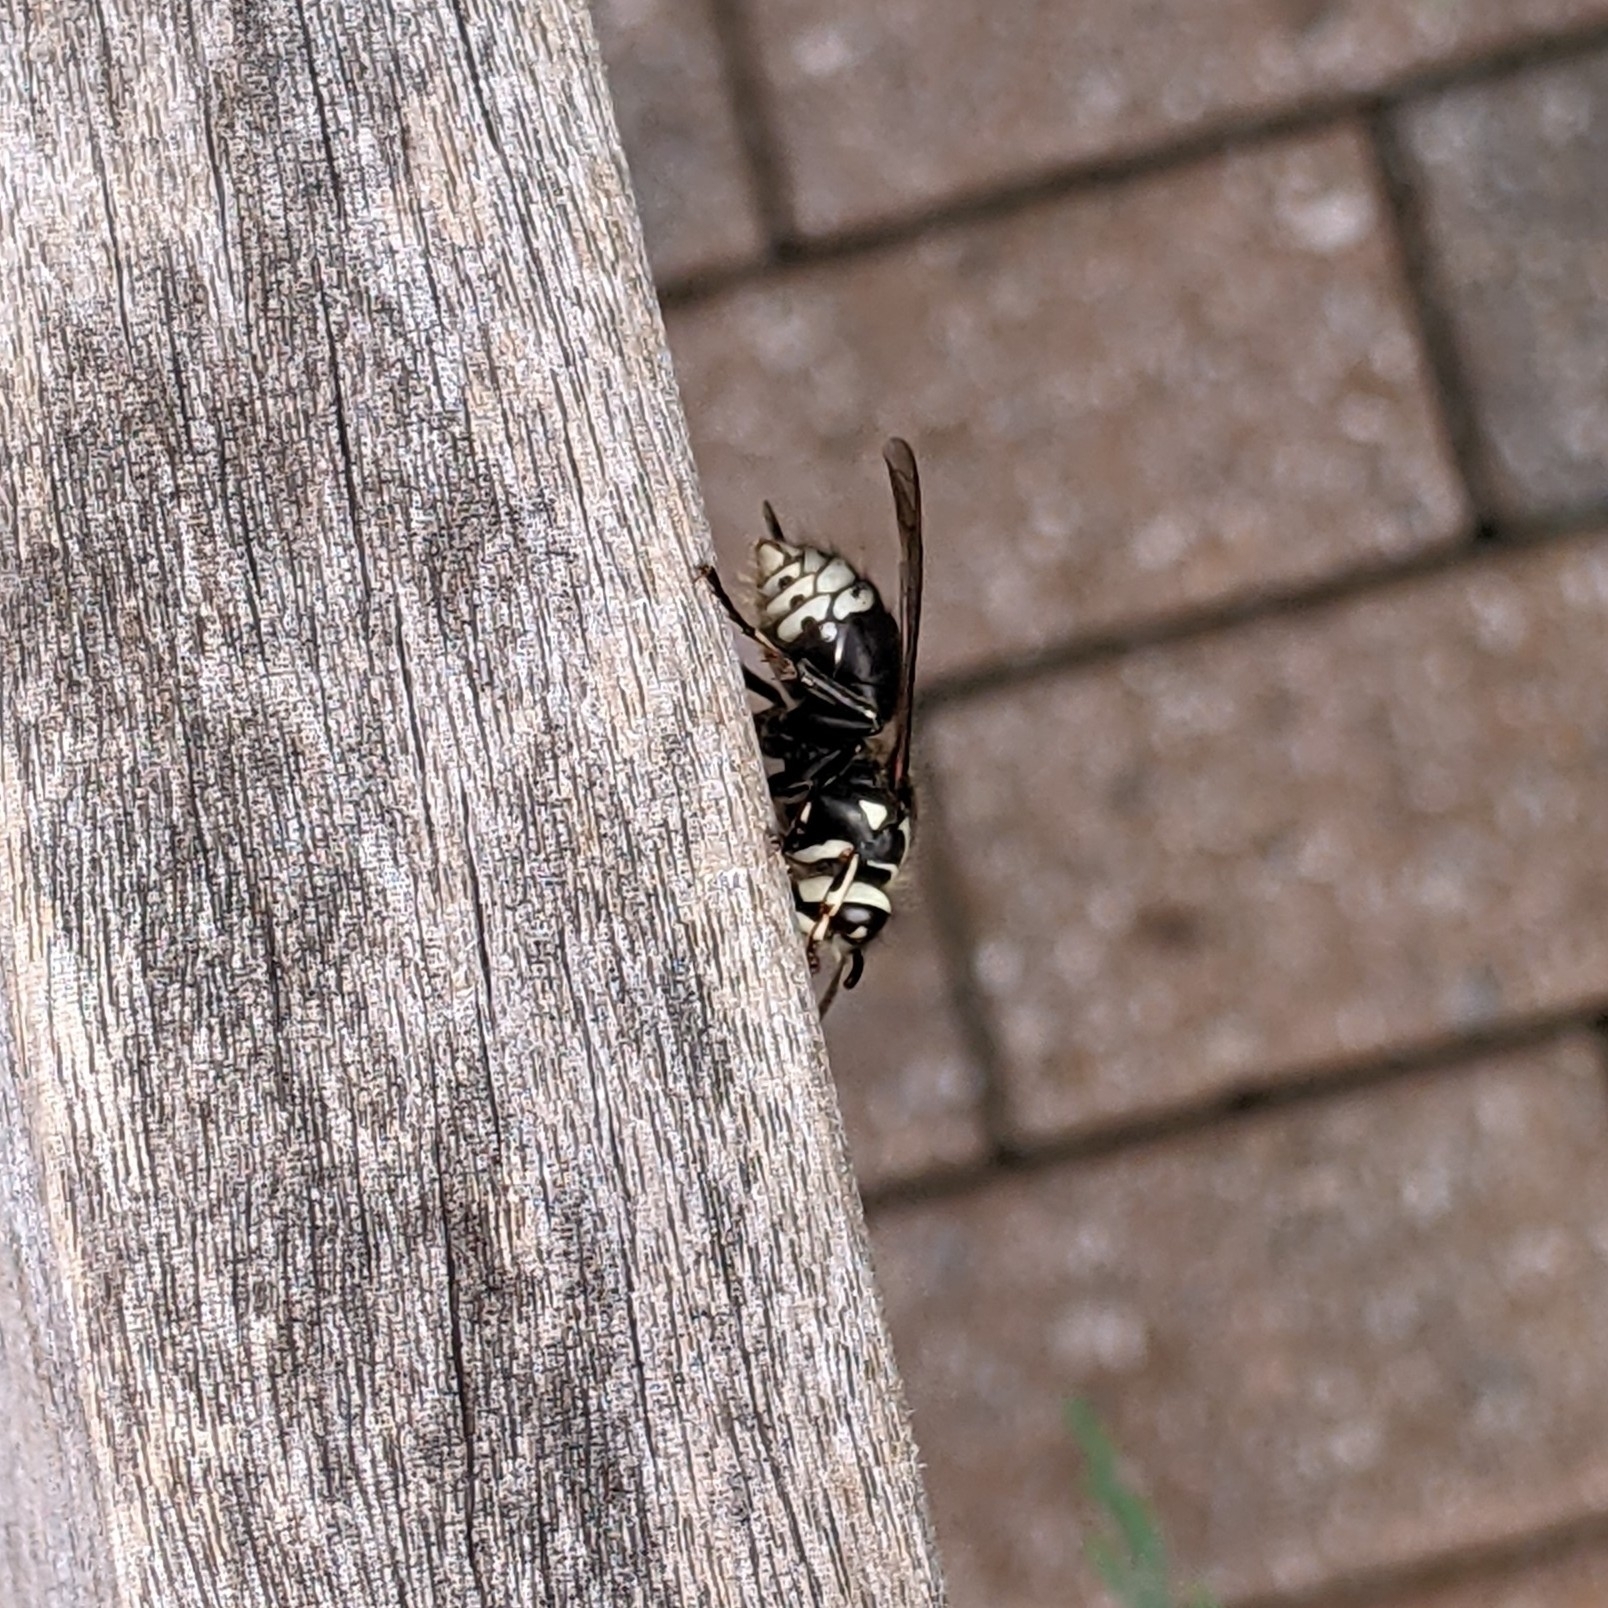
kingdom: Animalia
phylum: Arthropoda
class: Insecta
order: Hymenoptera
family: Vespidae
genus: Dolichovespula
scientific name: Dolichovespula maculata
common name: Bald-faced hornet
